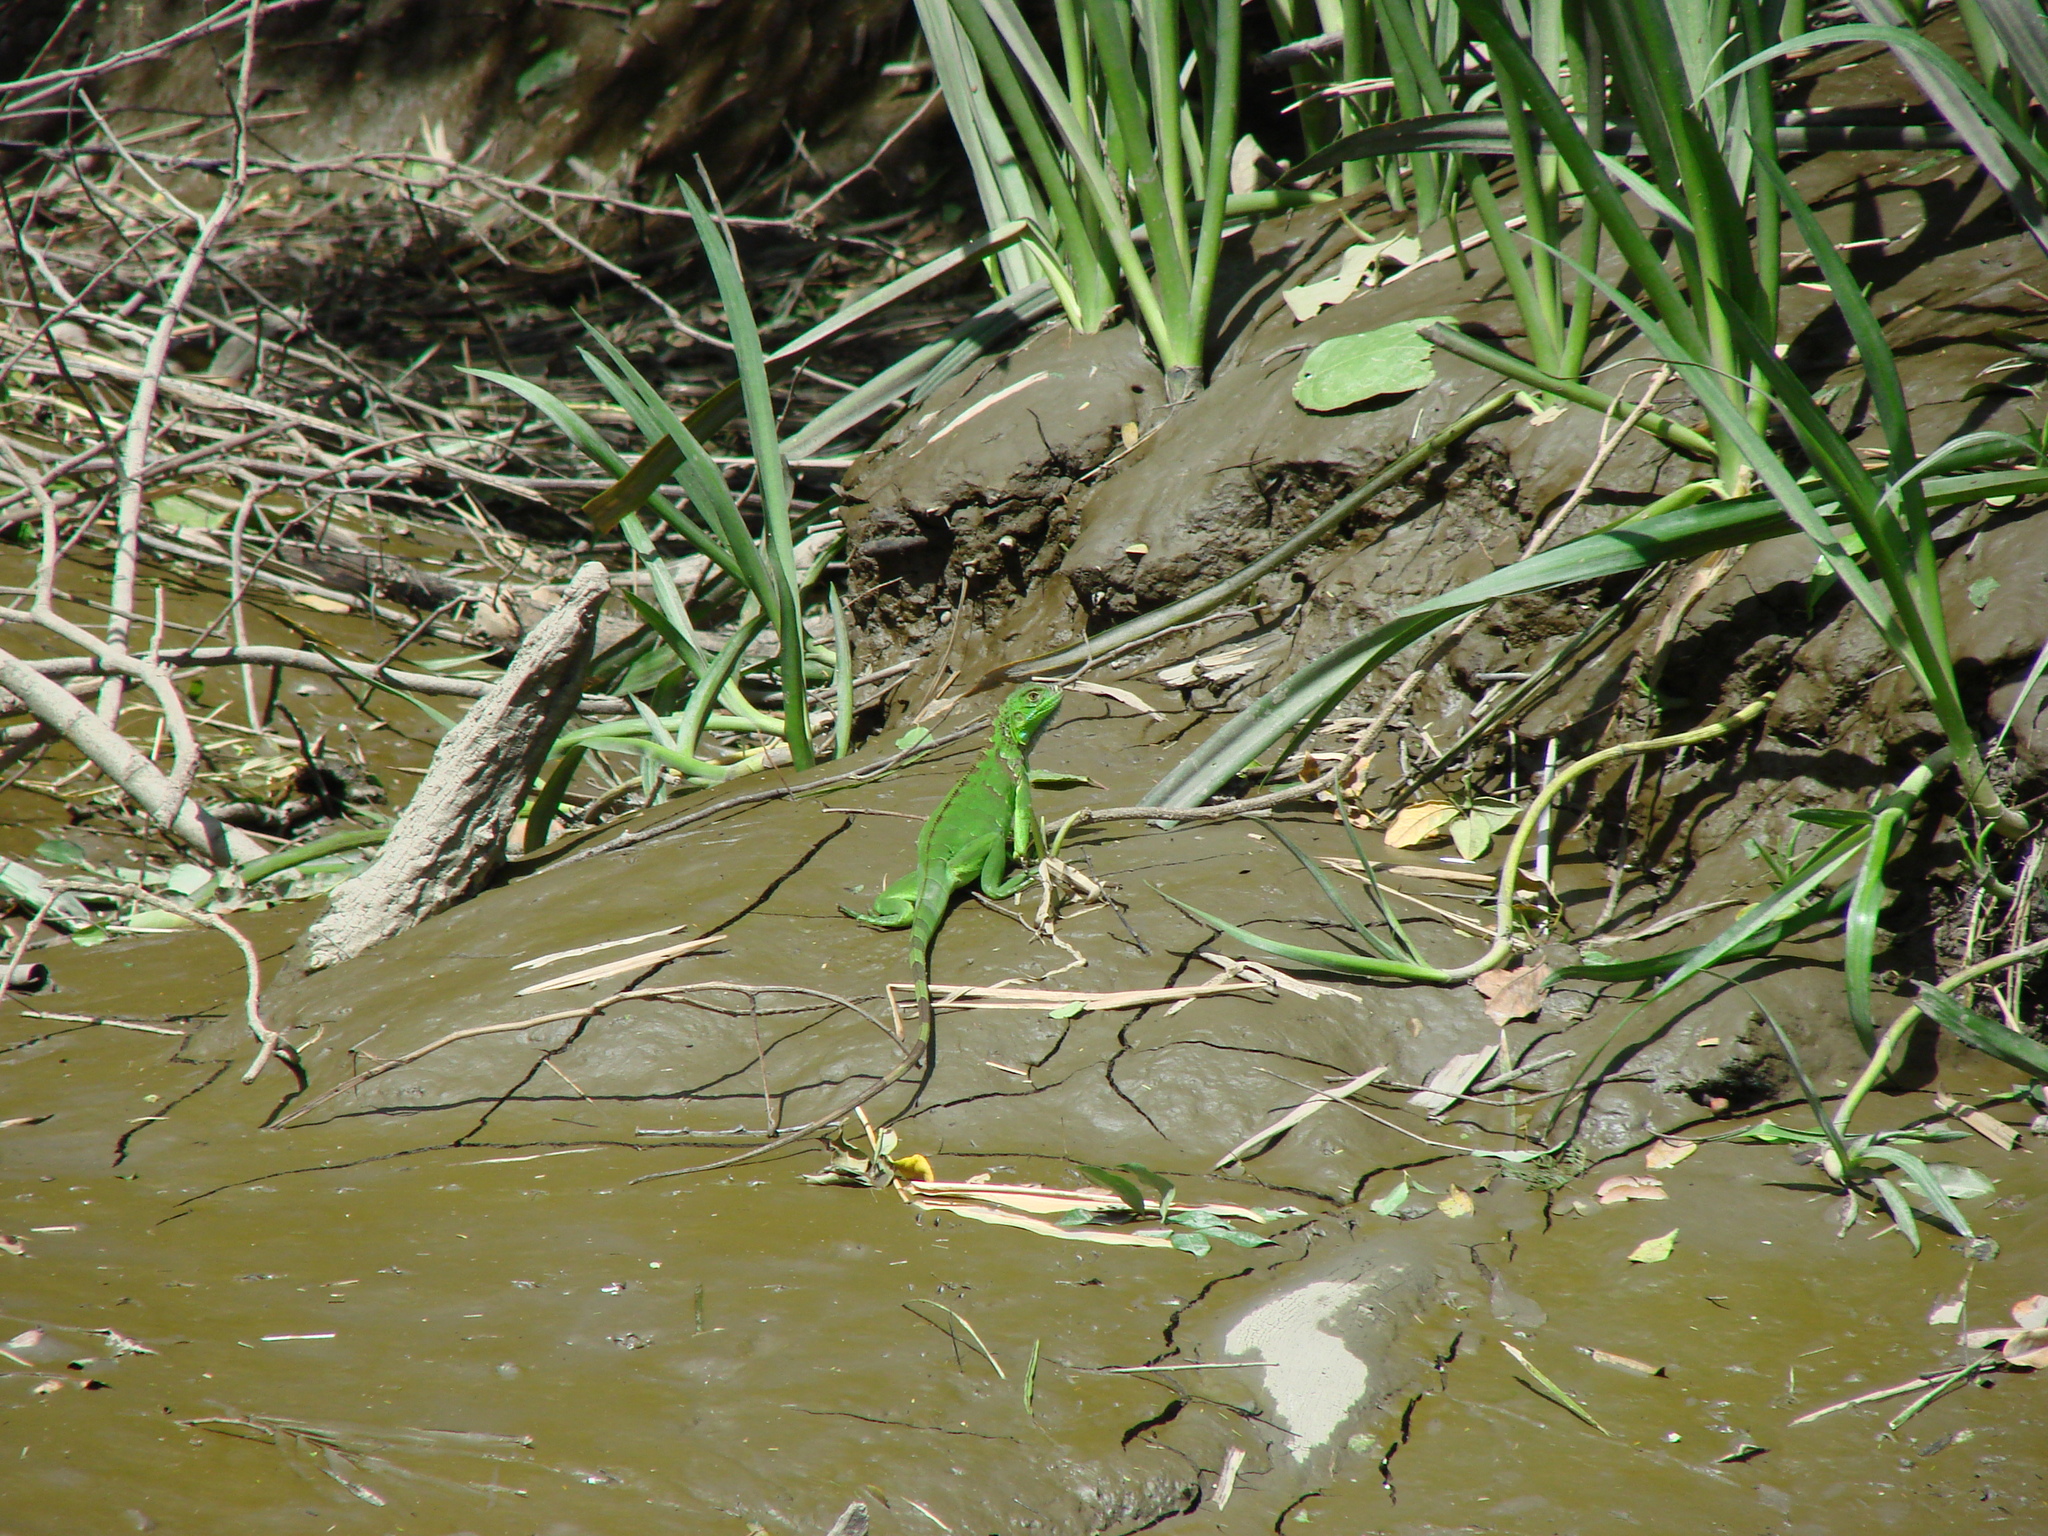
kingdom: Animalia
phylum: Chordata
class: Squamata
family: Iguanidae
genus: Iguana
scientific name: Iguana iguana
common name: Green iguana
